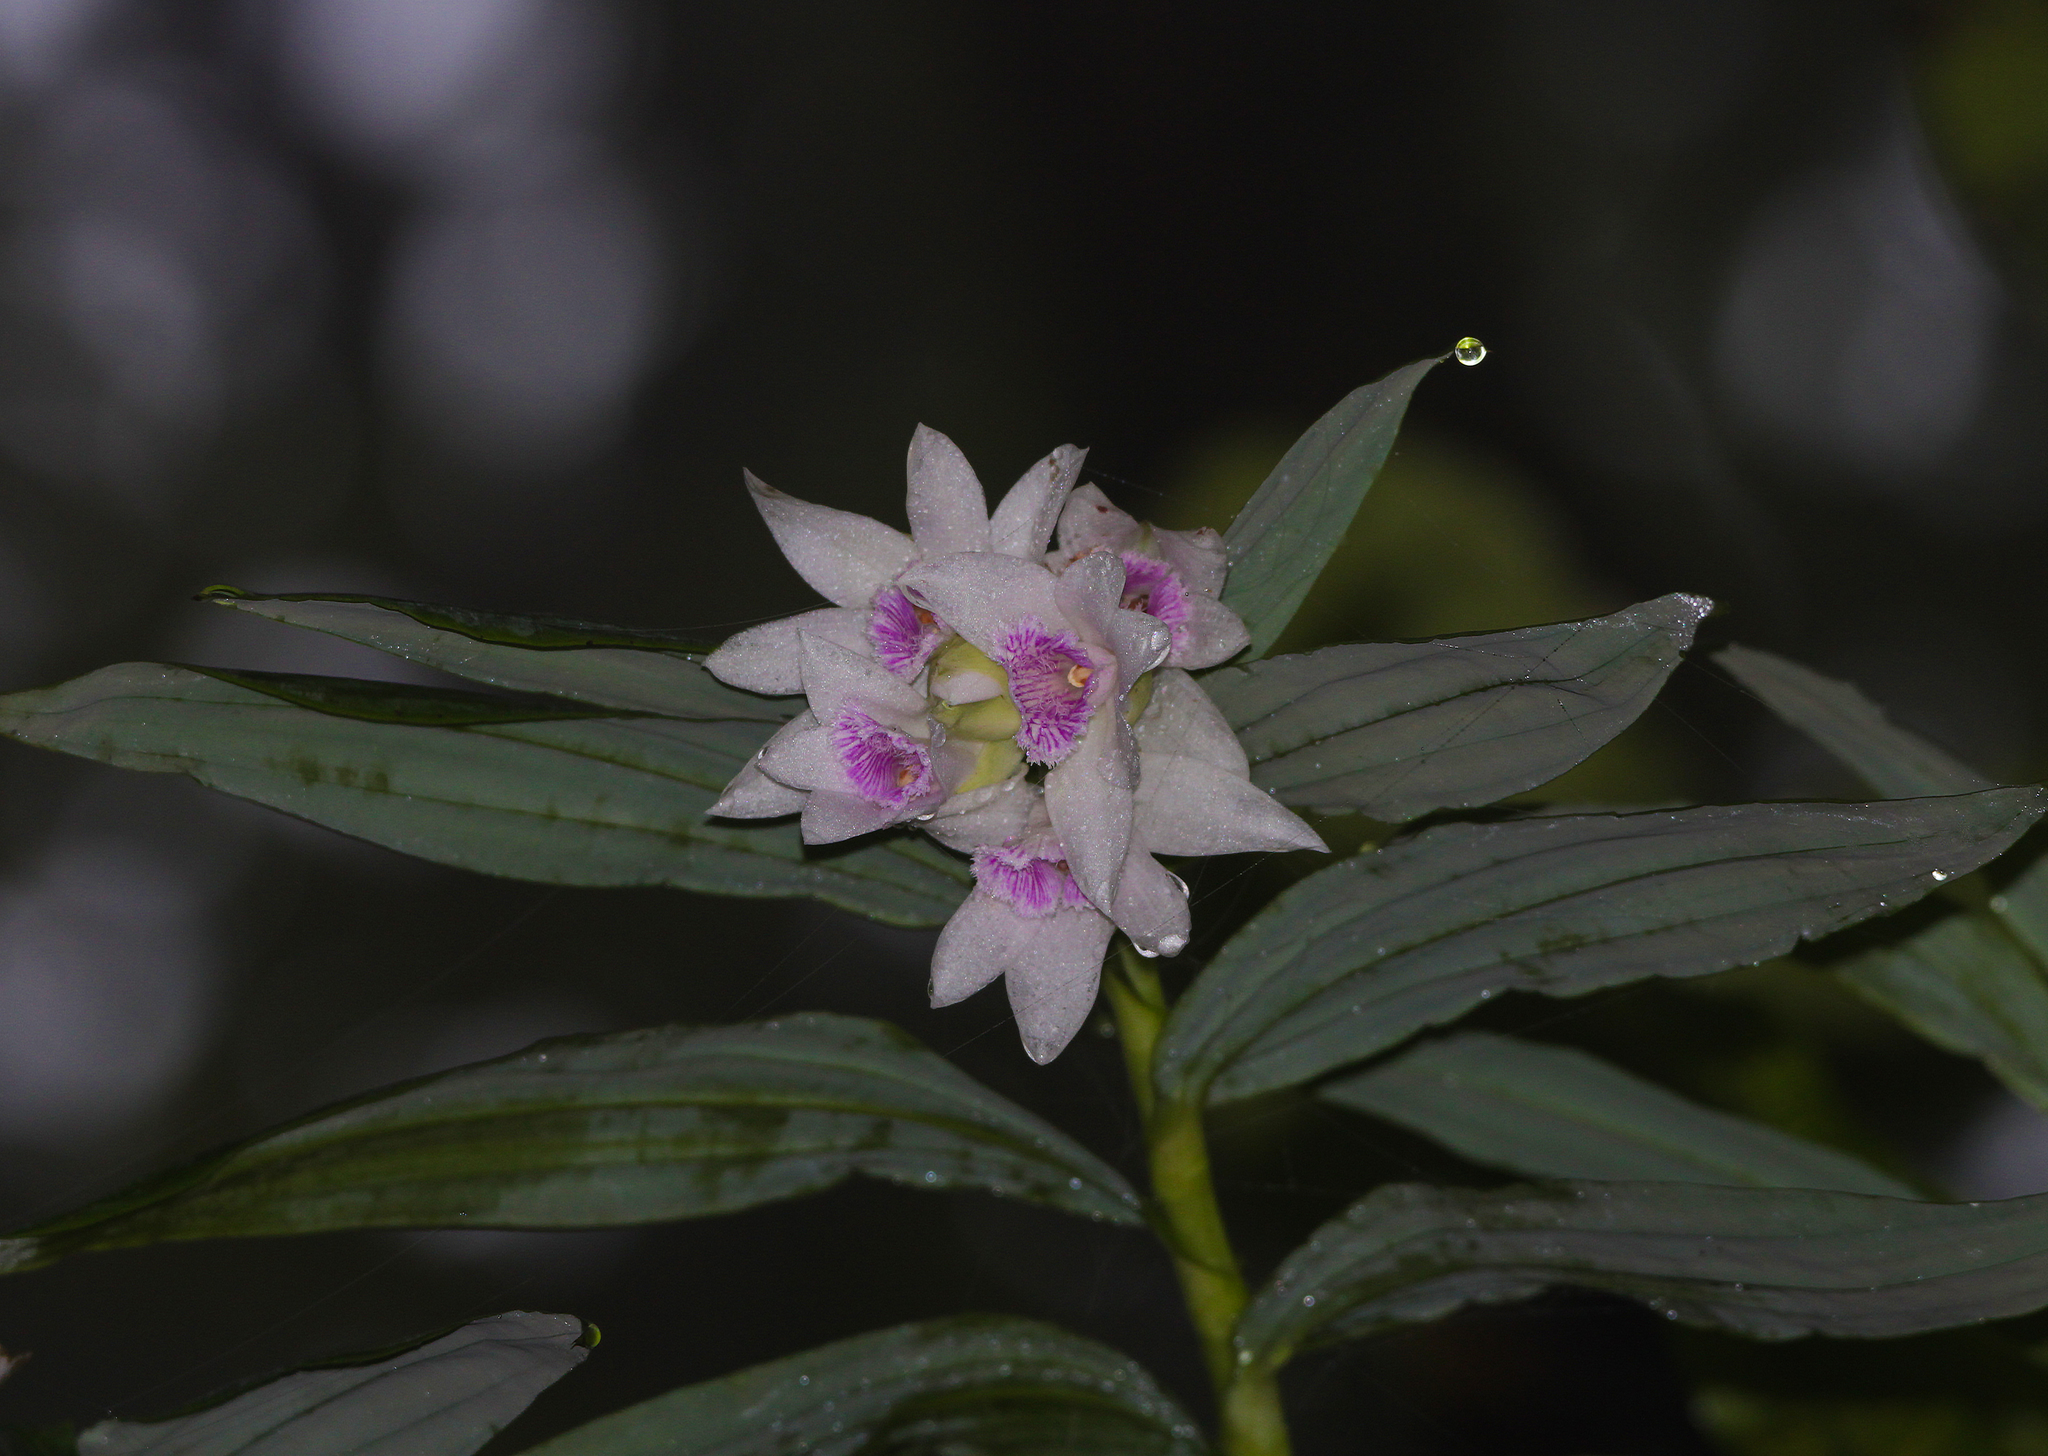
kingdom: Plantae
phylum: Tracheophyta
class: Liliopsida
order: Asparagales
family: Orchidaceae
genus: Thunia
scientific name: Thunia alba
